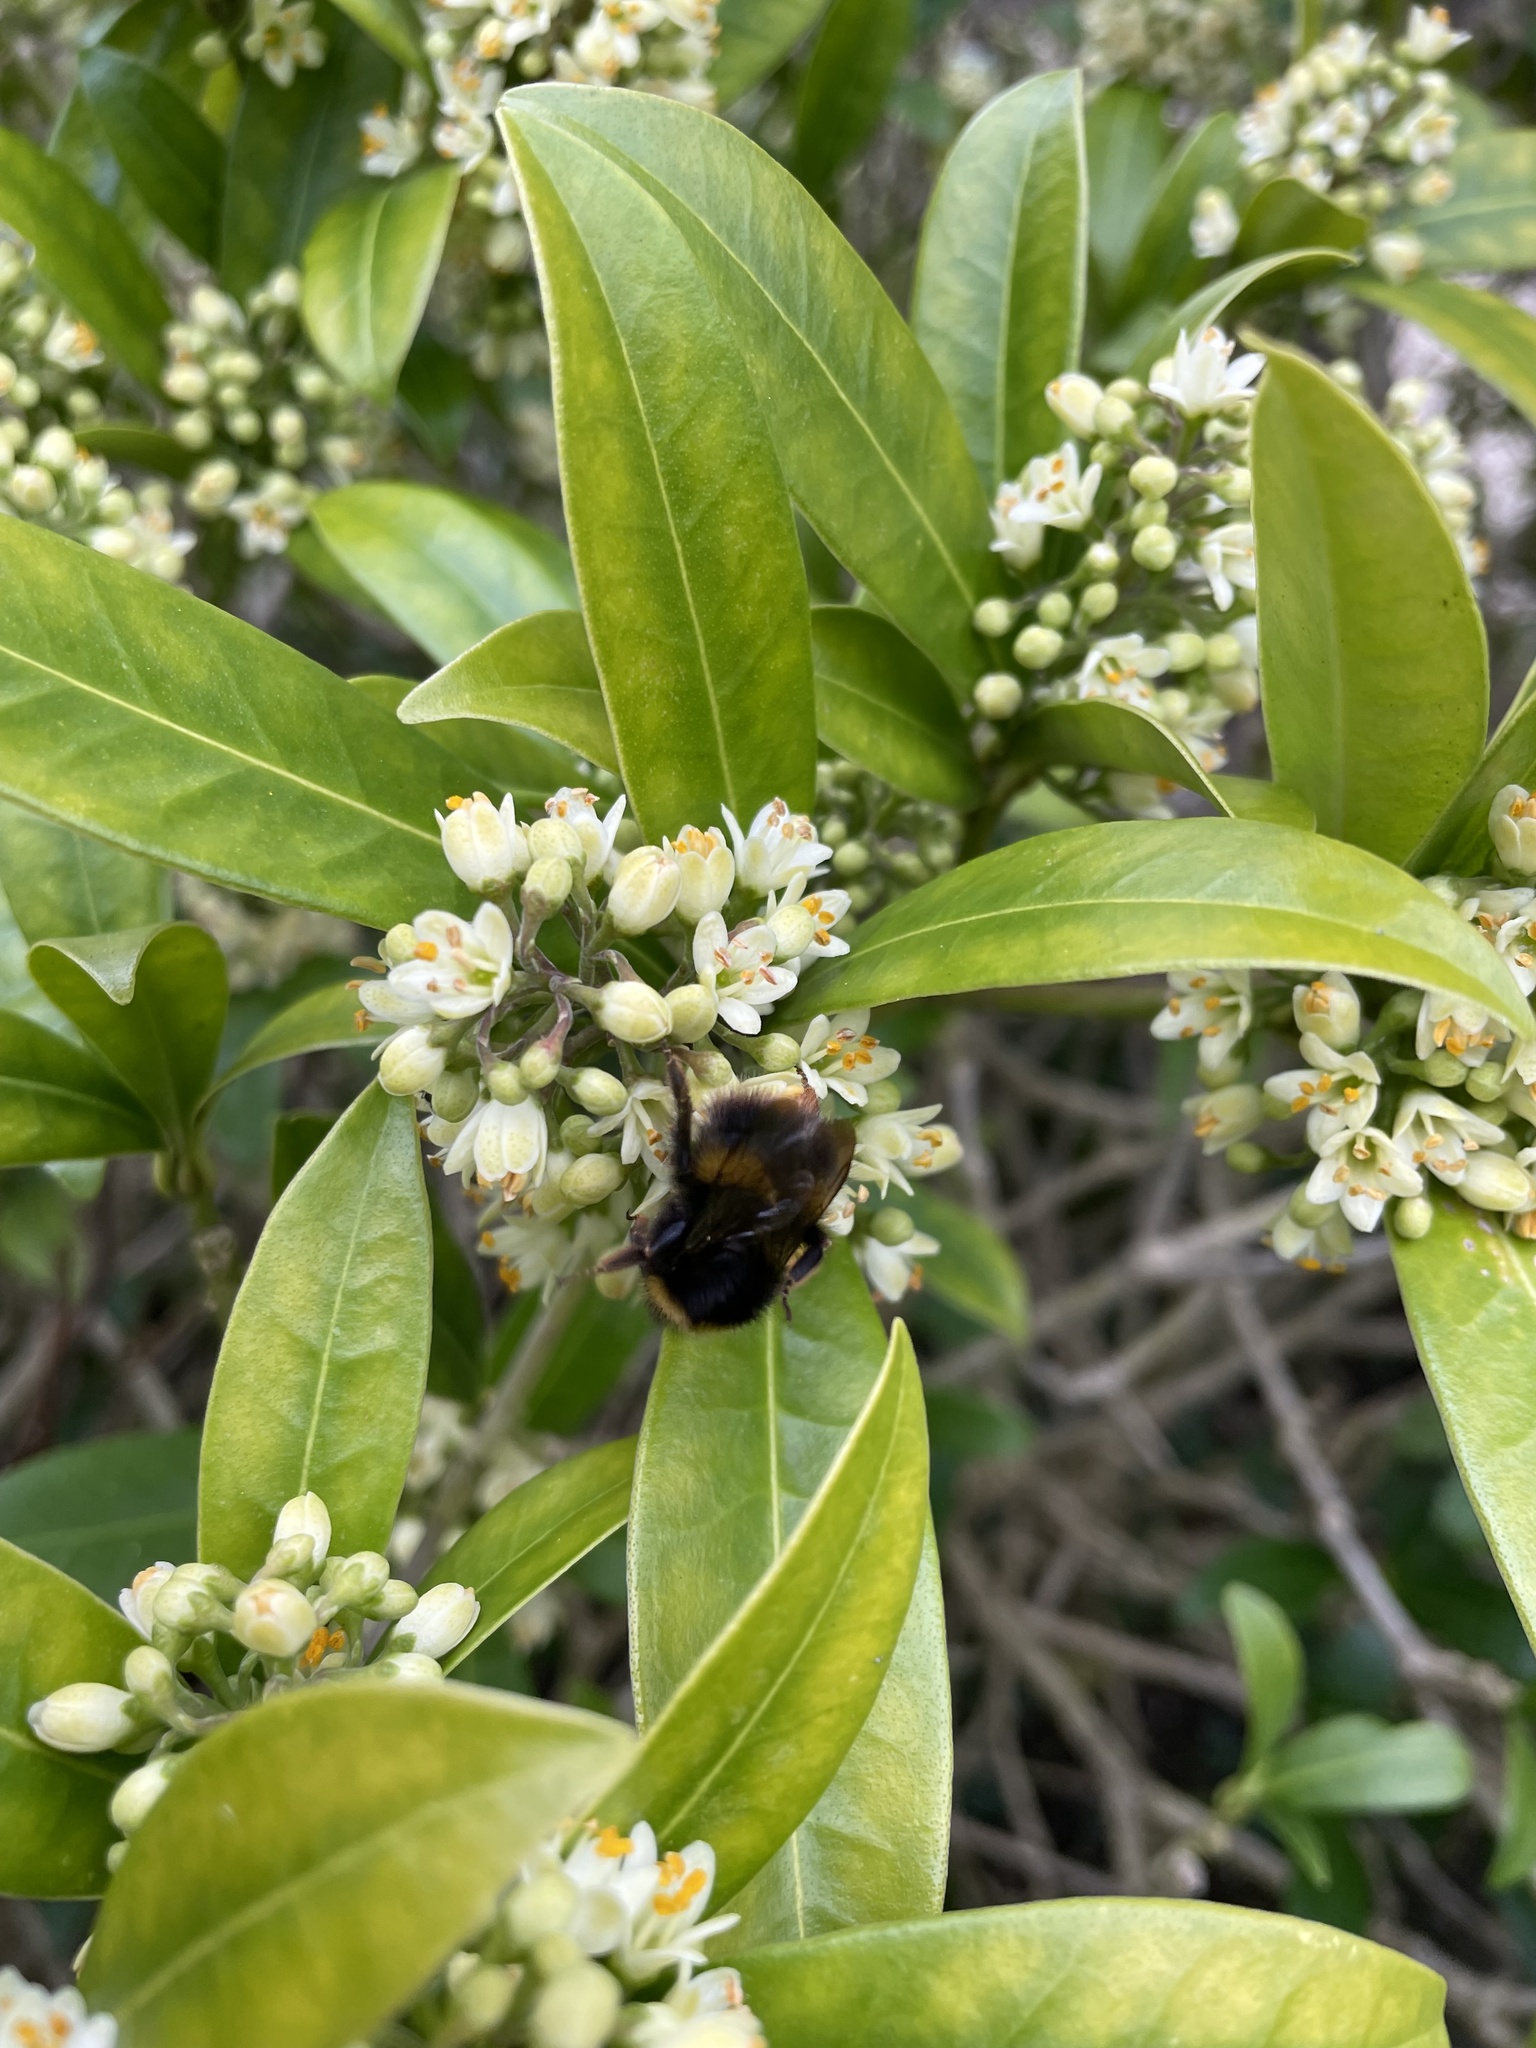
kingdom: Animalia
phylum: Arthropoda
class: Insecta
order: Hymenoptera
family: Apidae
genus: Bombus
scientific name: Bombus pratorum
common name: Early humble-bee
